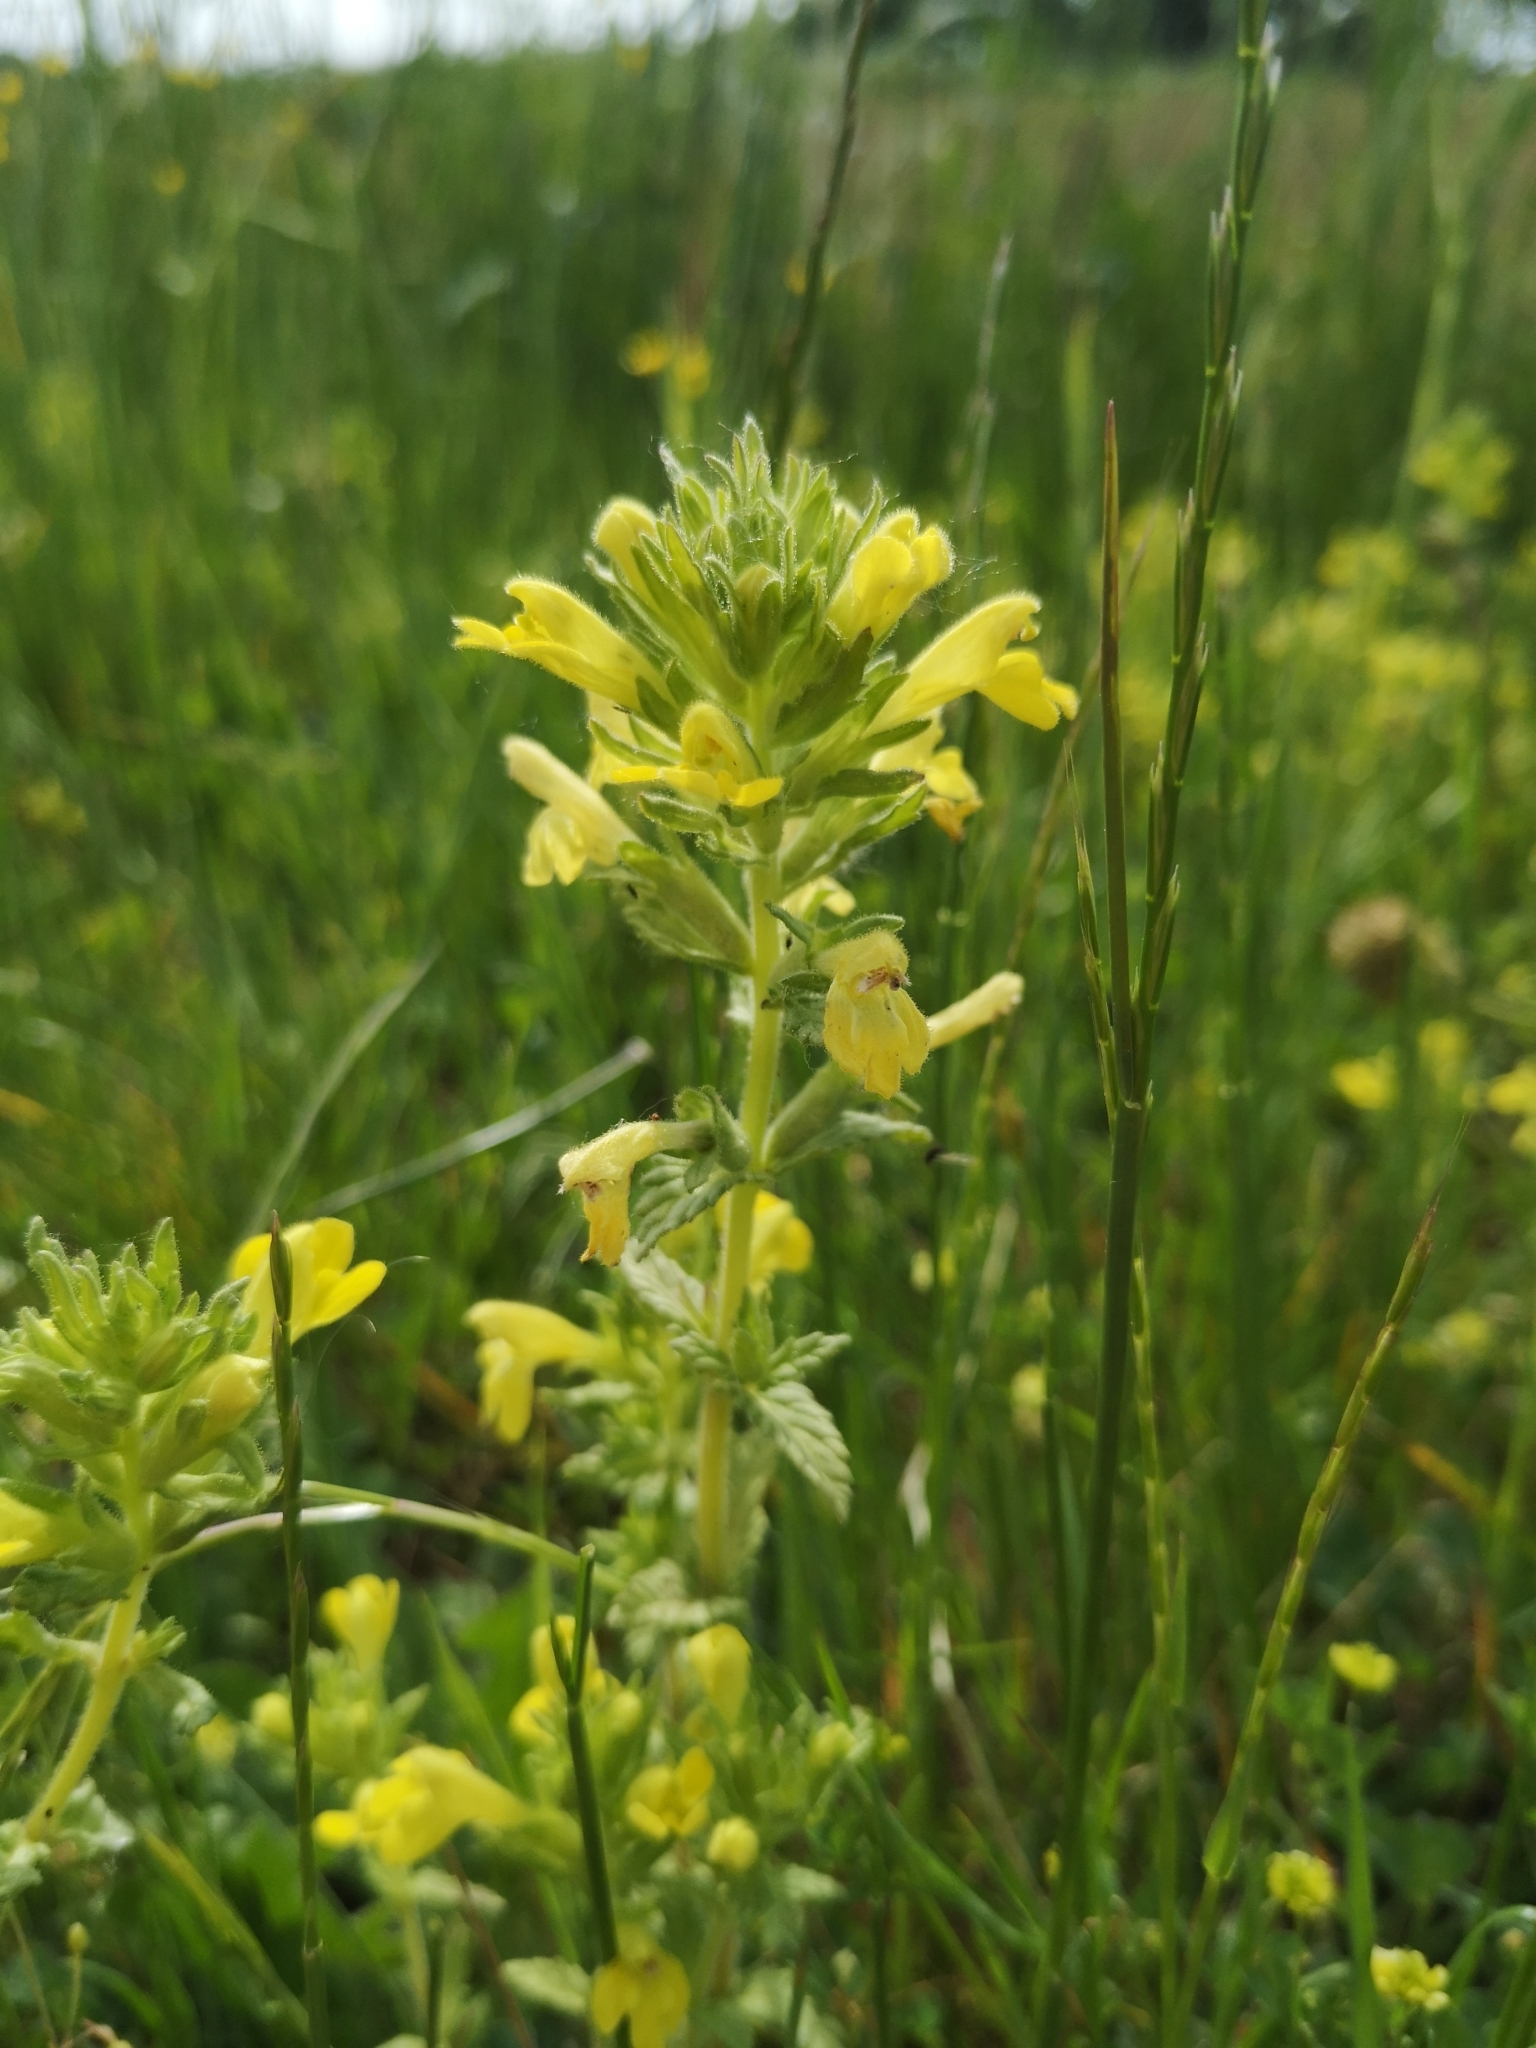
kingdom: Plantae
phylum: Tracheophyta
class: Magnoliopsida
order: Lamiales
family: Orobanchaceae
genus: Bellardia
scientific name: Bellardia viscosa
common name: Sticky parentucellia
